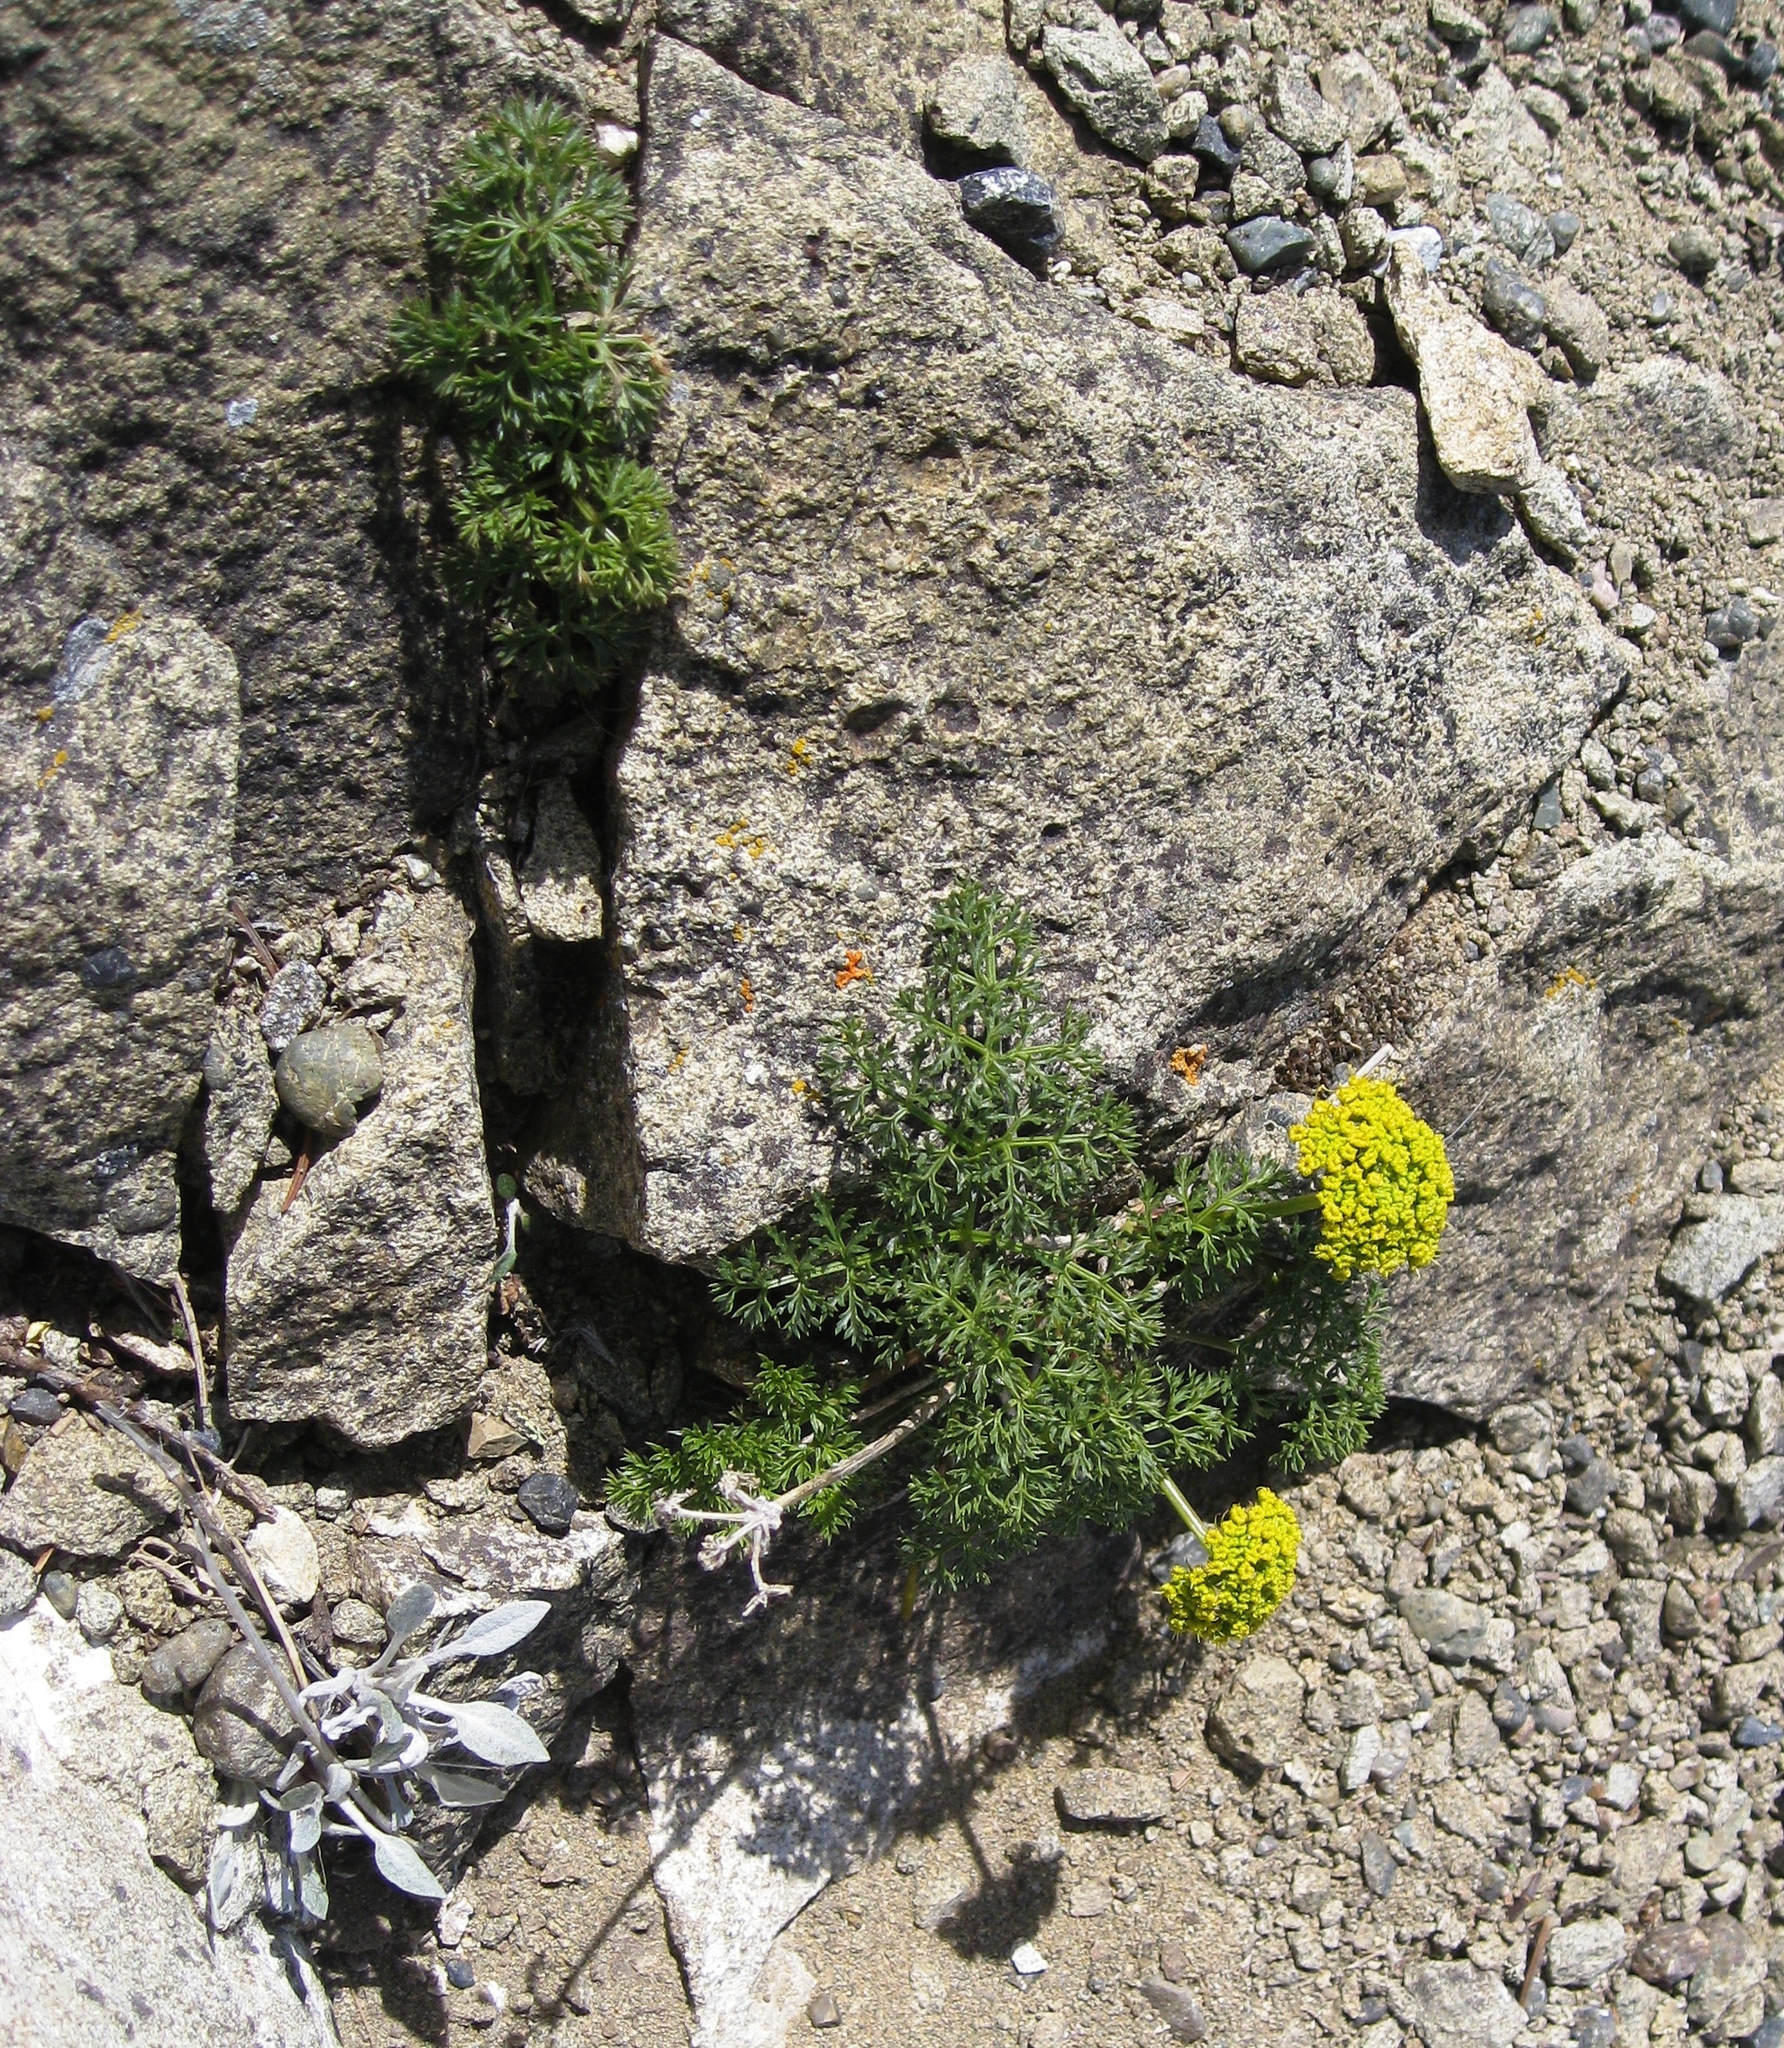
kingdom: Plantae
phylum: Tracheophyta
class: Magnoliopsida
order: Apiales
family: Apiaceae
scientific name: Apiaceae
